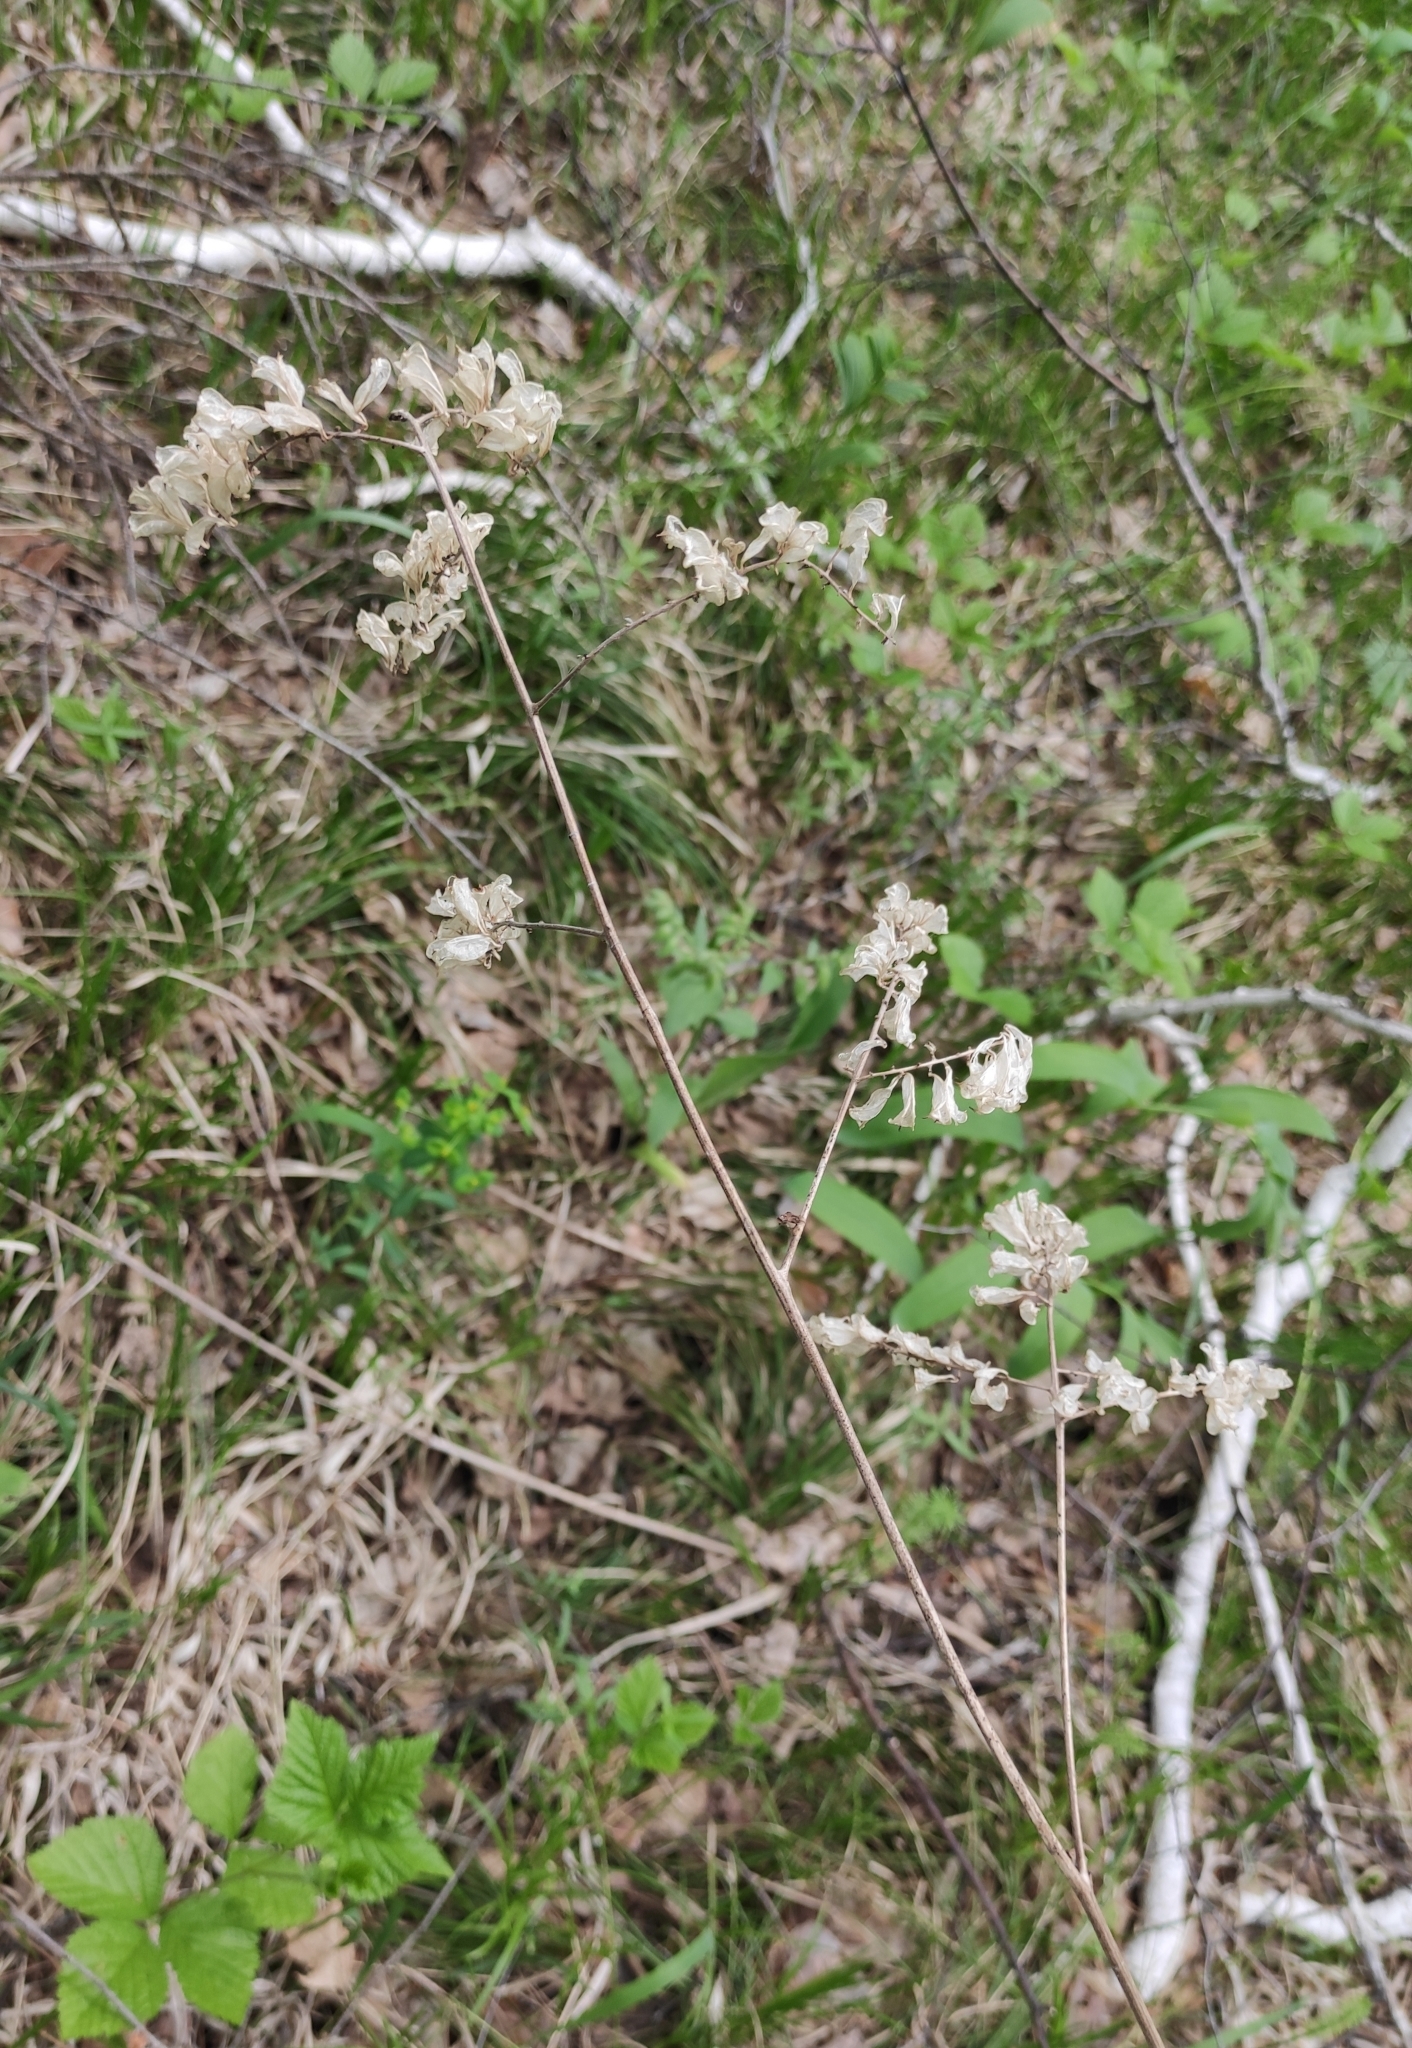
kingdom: Plantae
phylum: Tracheophyta
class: Magnoliopsida
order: Ranunculales
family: Ranunculaceae
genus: Actaea
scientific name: Actaea cimicifuga
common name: Chinese cimicifuga
